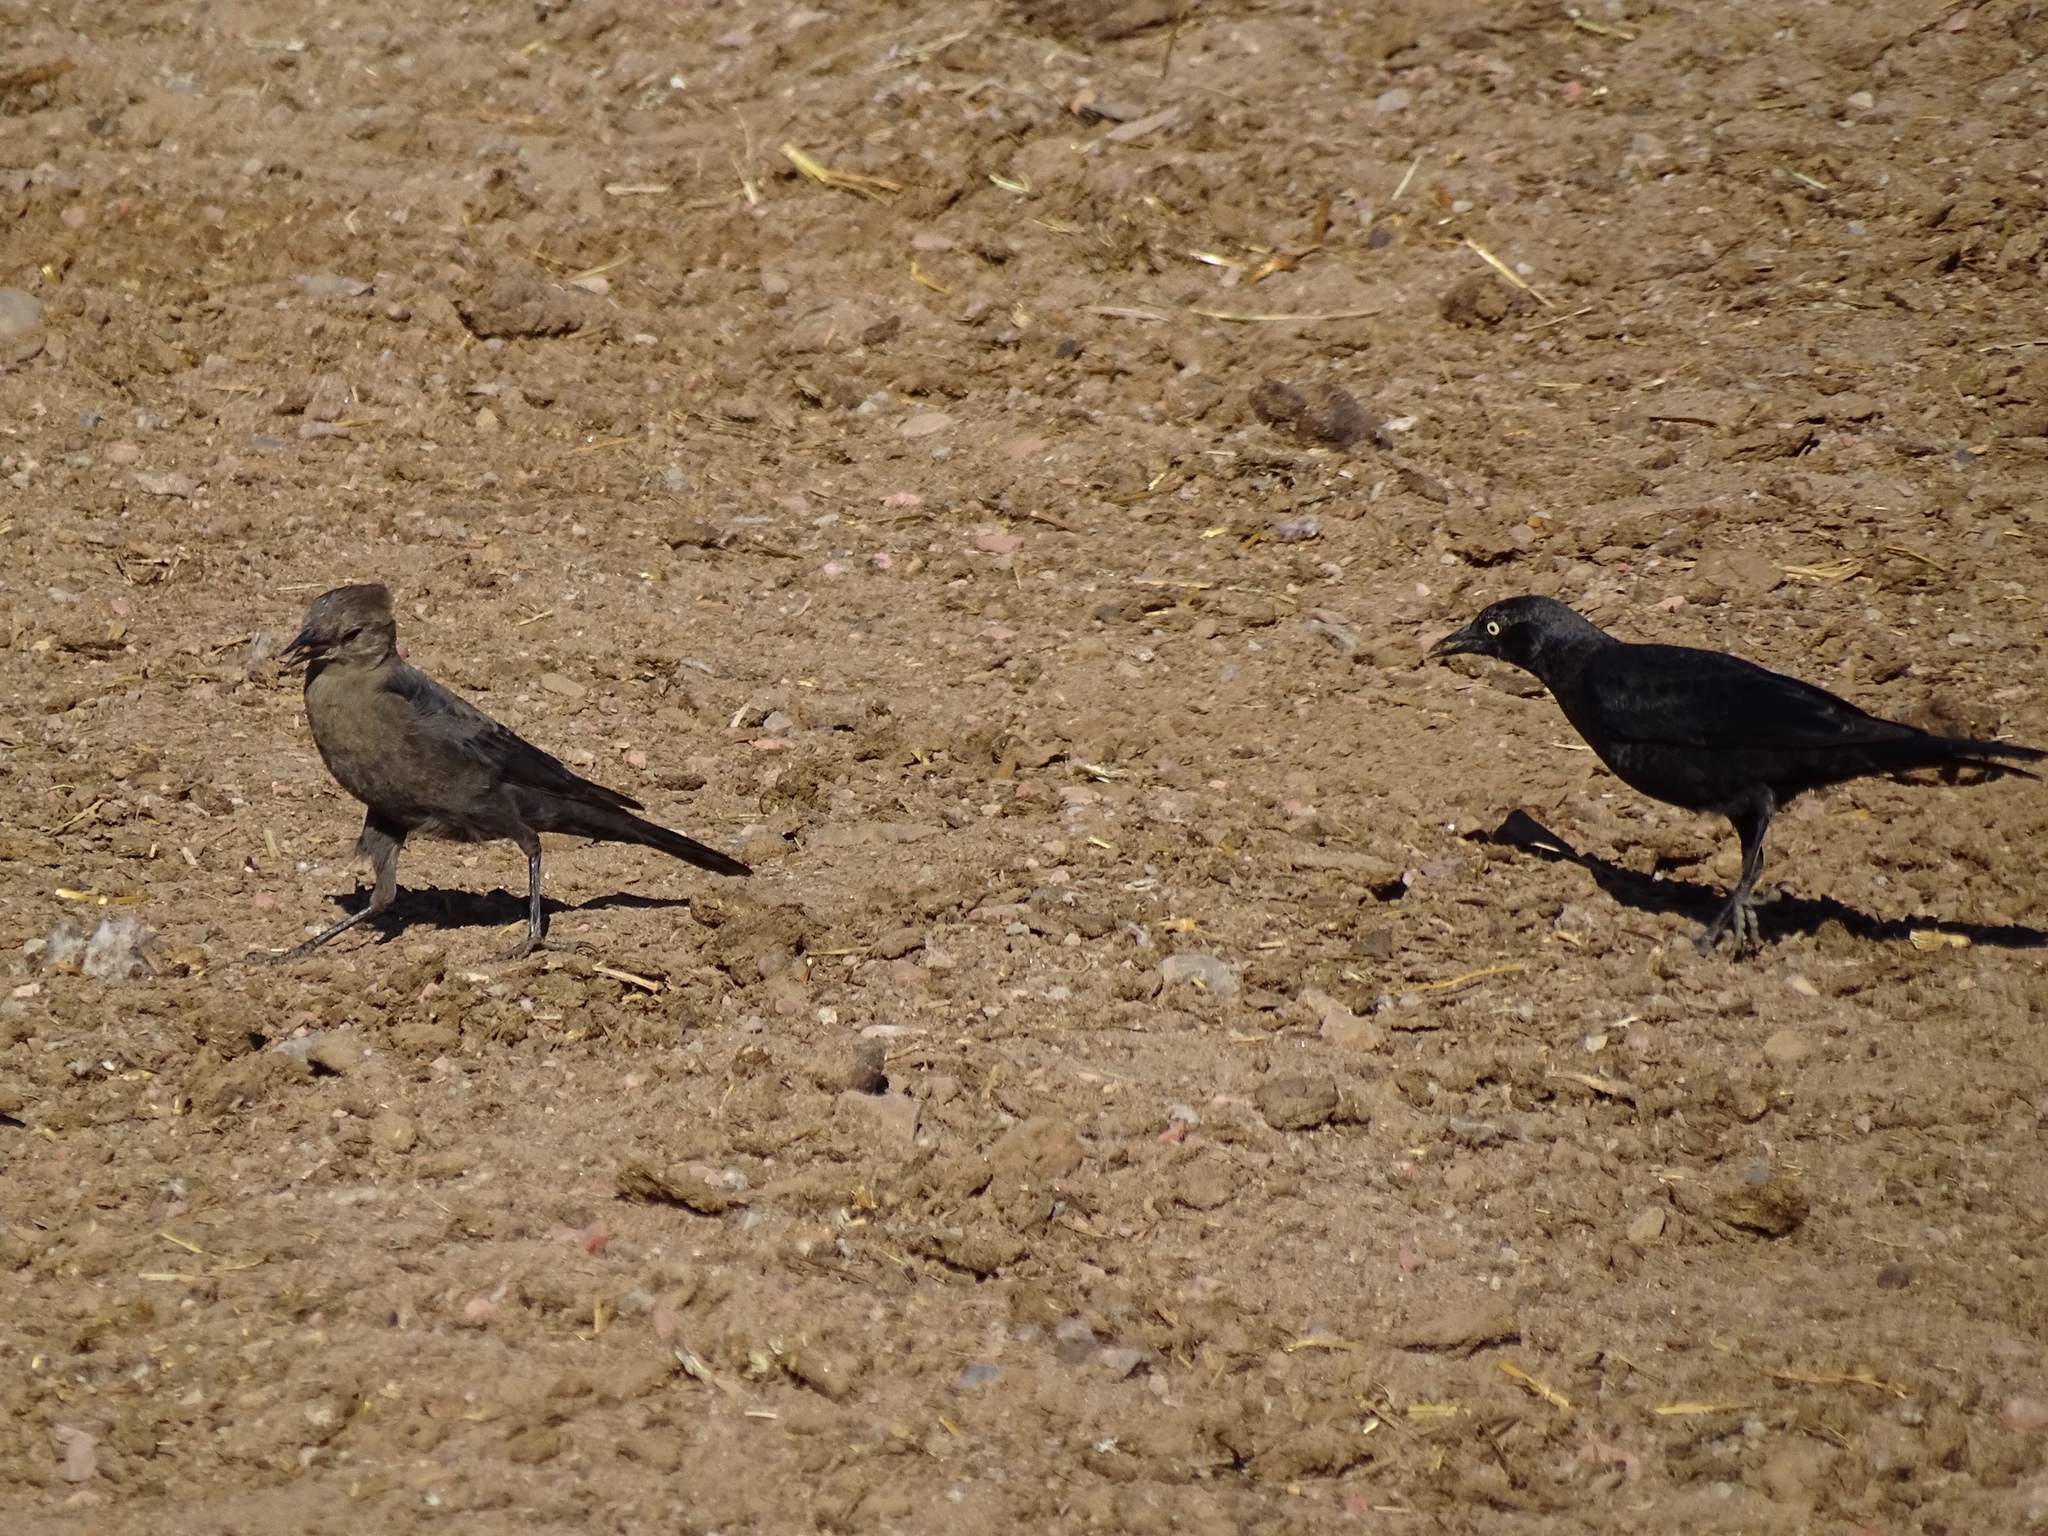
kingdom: Animalia
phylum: Chordata
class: Aves
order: Passeriformes
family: Icteridae
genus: Euphagus
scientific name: Euphagus cyanocephalus
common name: Brewer's blackbird
